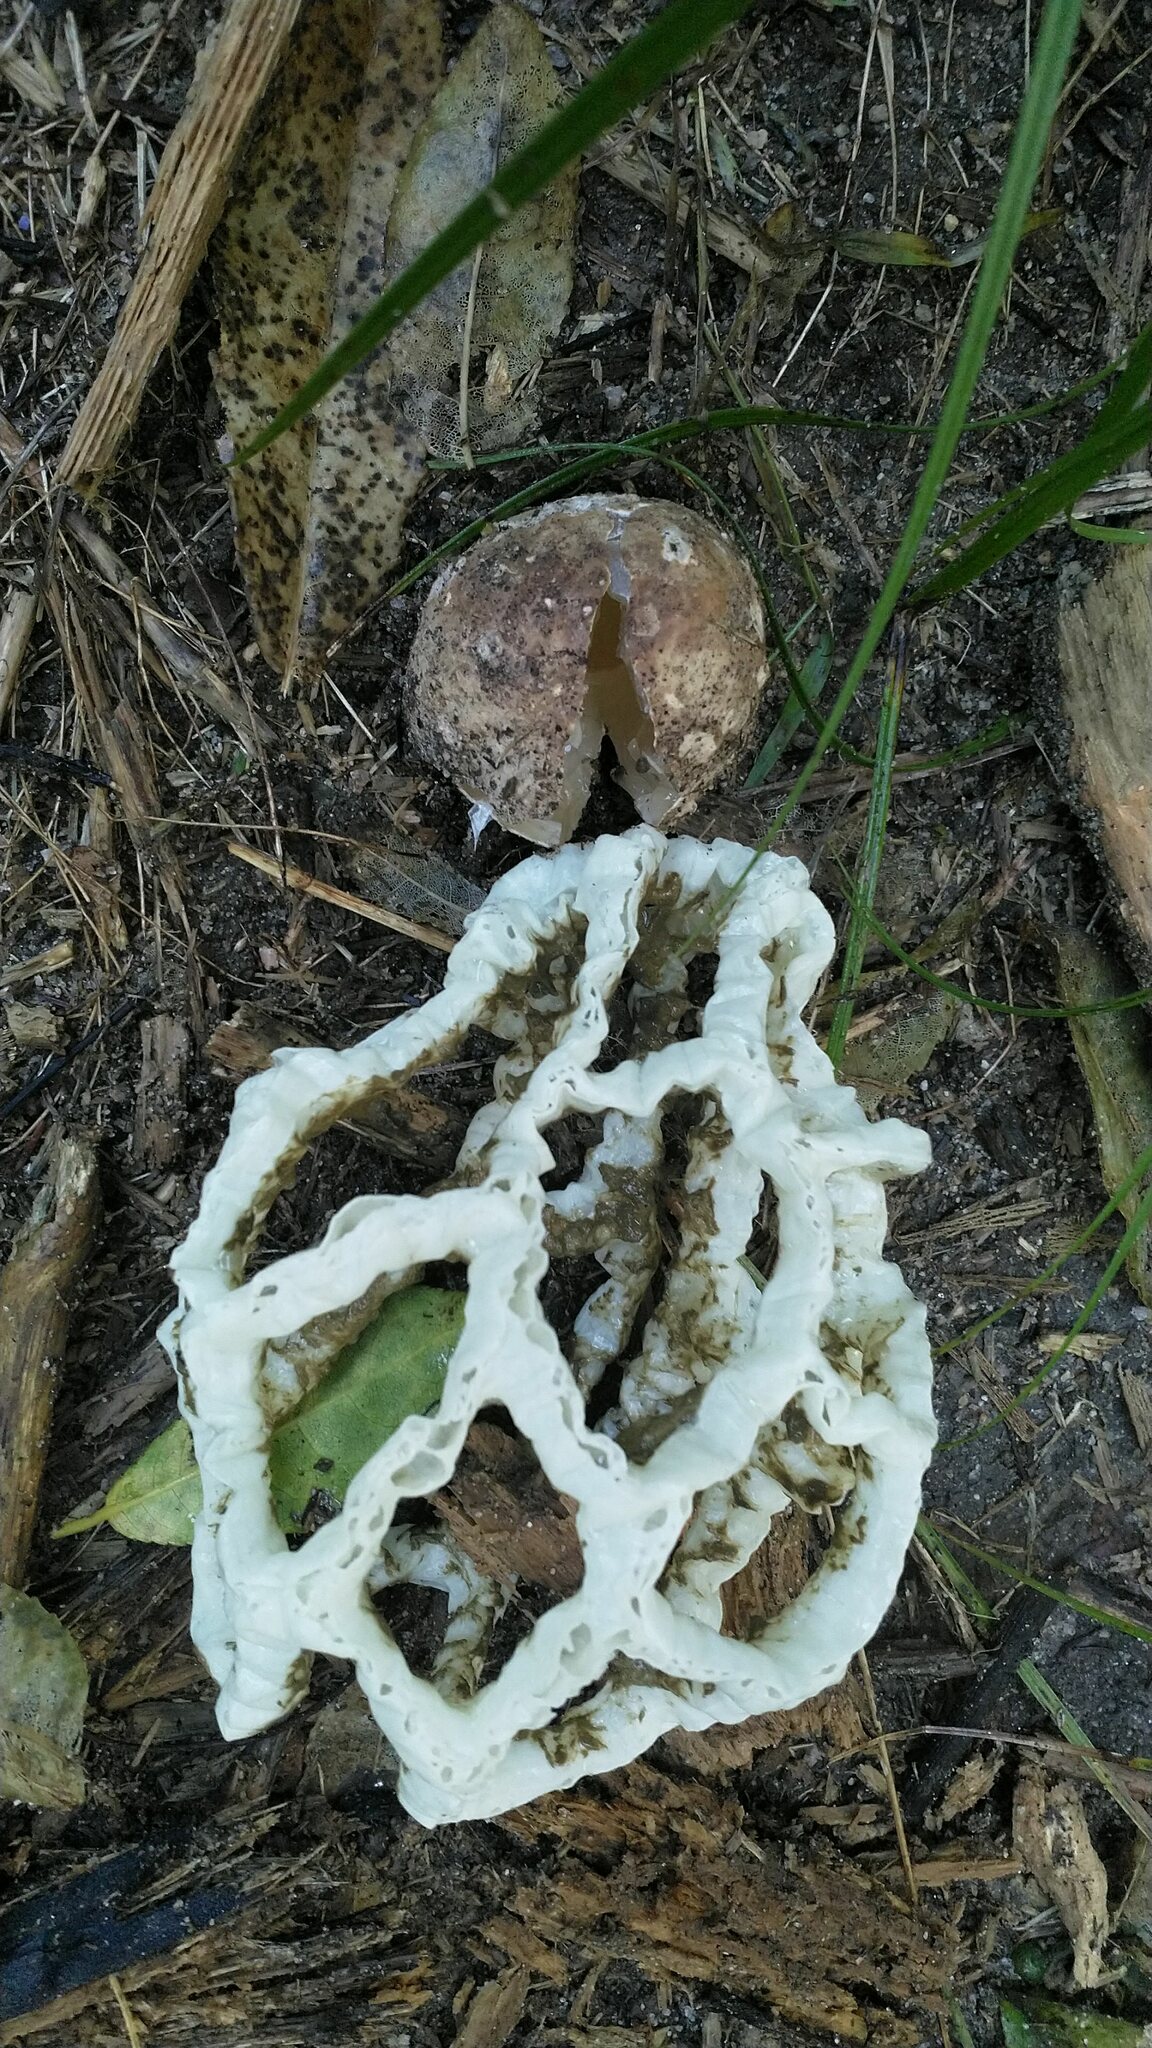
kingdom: Fungi
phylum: Basidiomycota
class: Agaricomycetes
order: Phallales
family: Phallaceae
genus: Ileodictyon
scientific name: Ileodictyon cibarium
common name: Basket fungus
